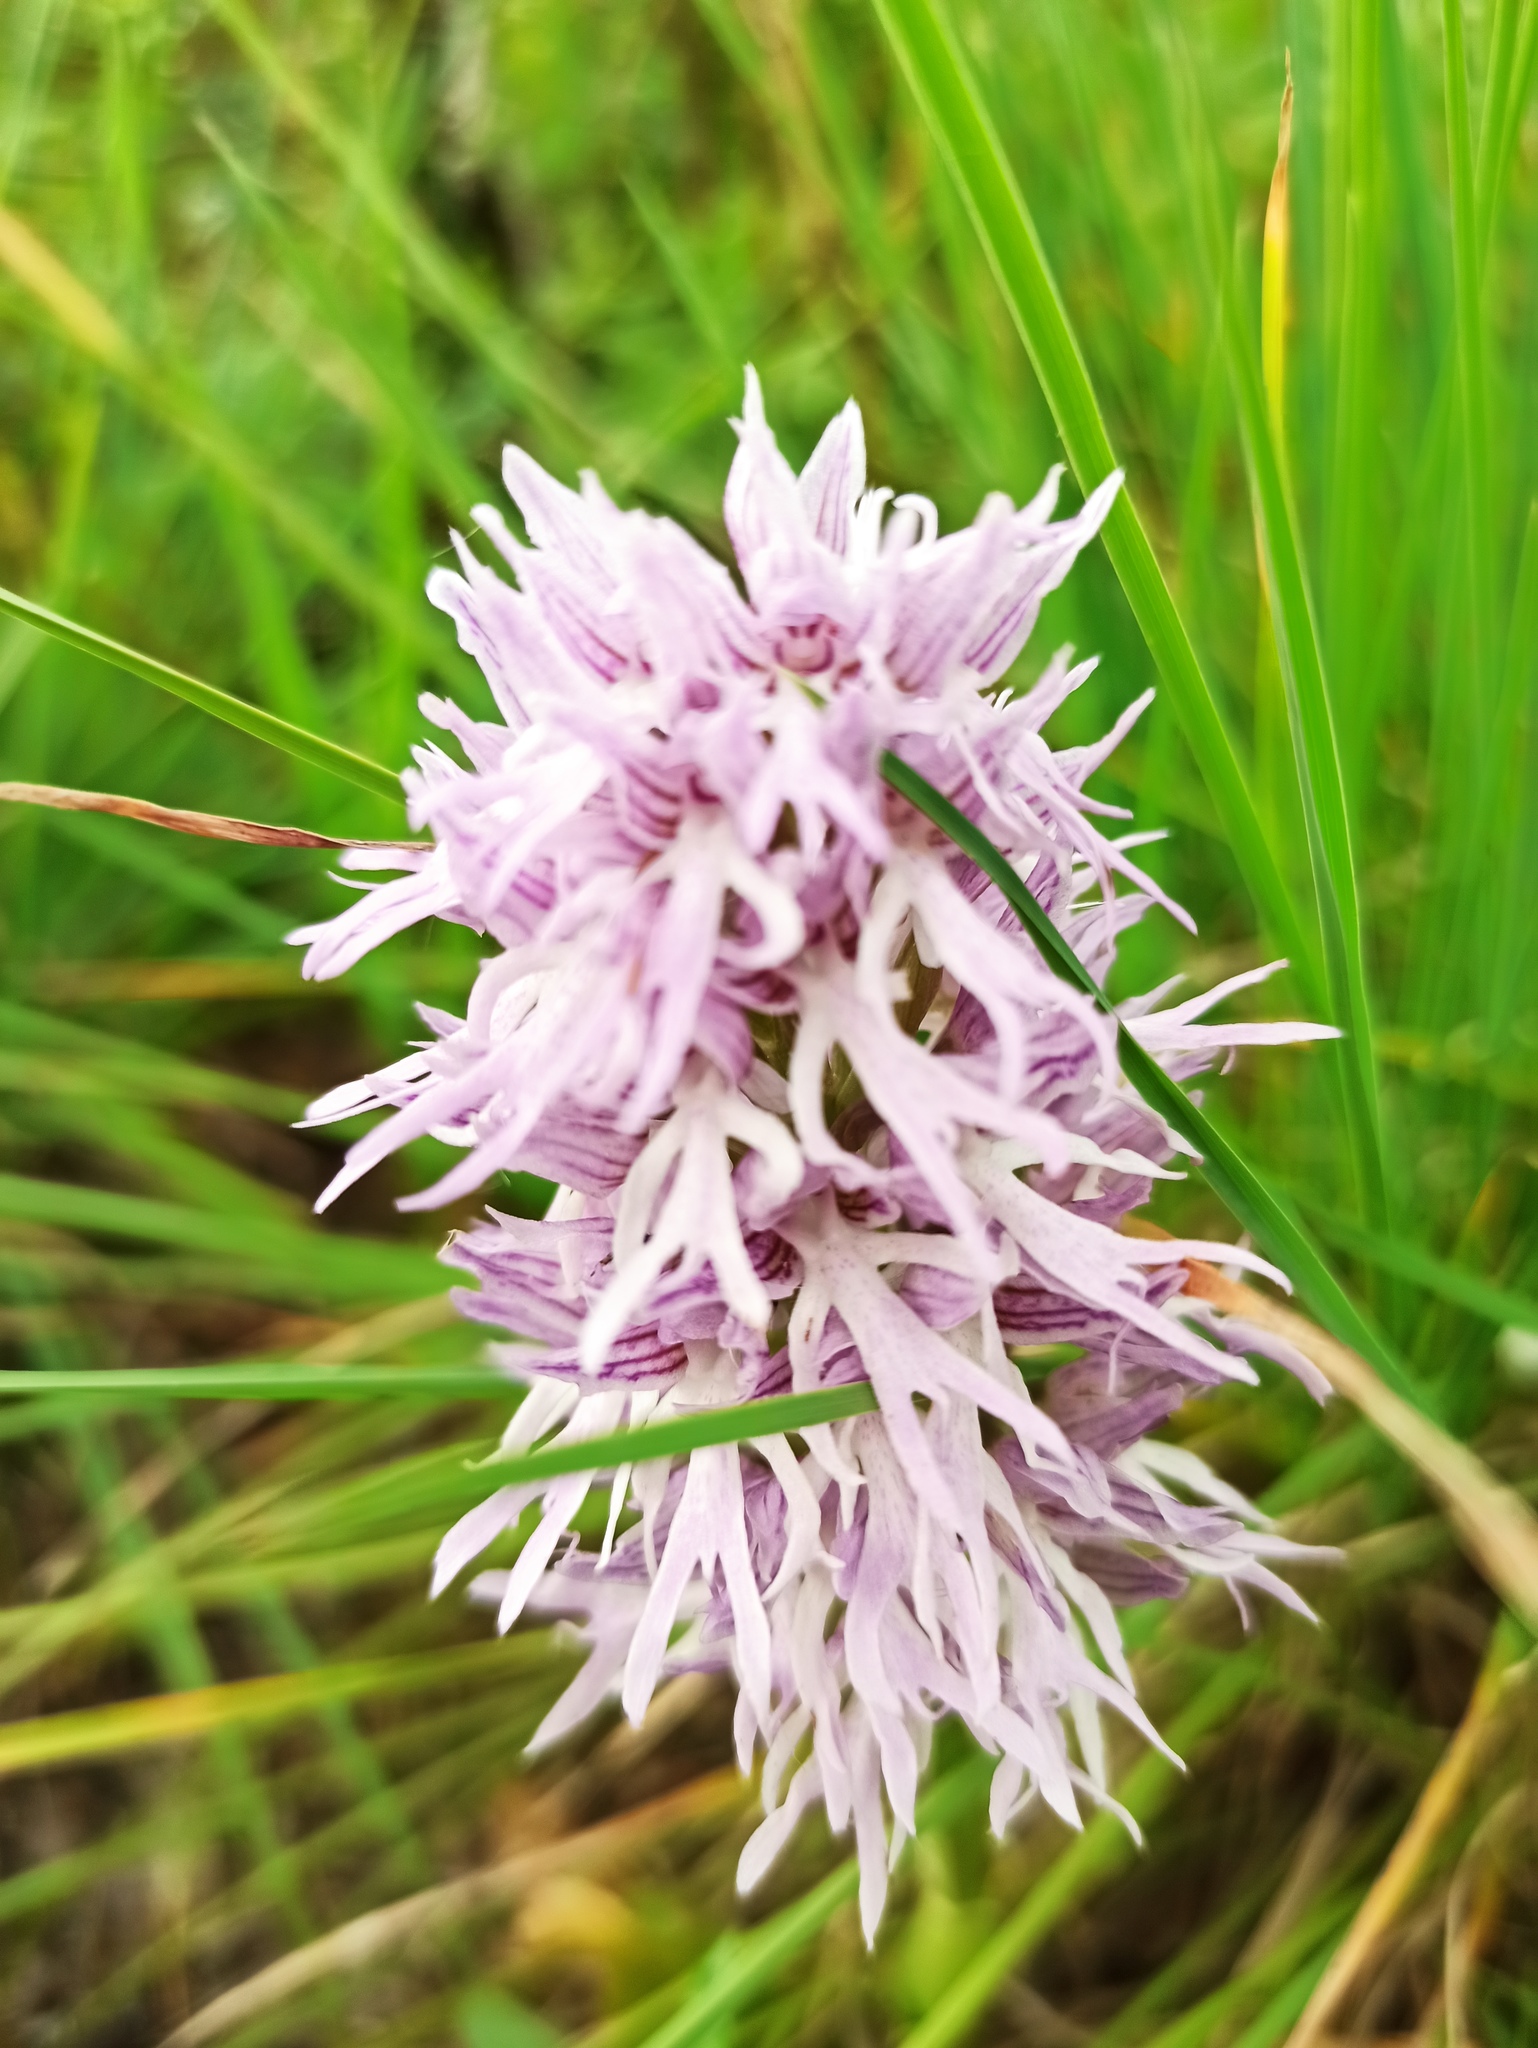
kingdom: Plantae
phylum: Tracheophyta
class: Liliopsida
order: Asparagales
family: Orchidaceae
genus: Orchis
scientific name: Orchis italica
